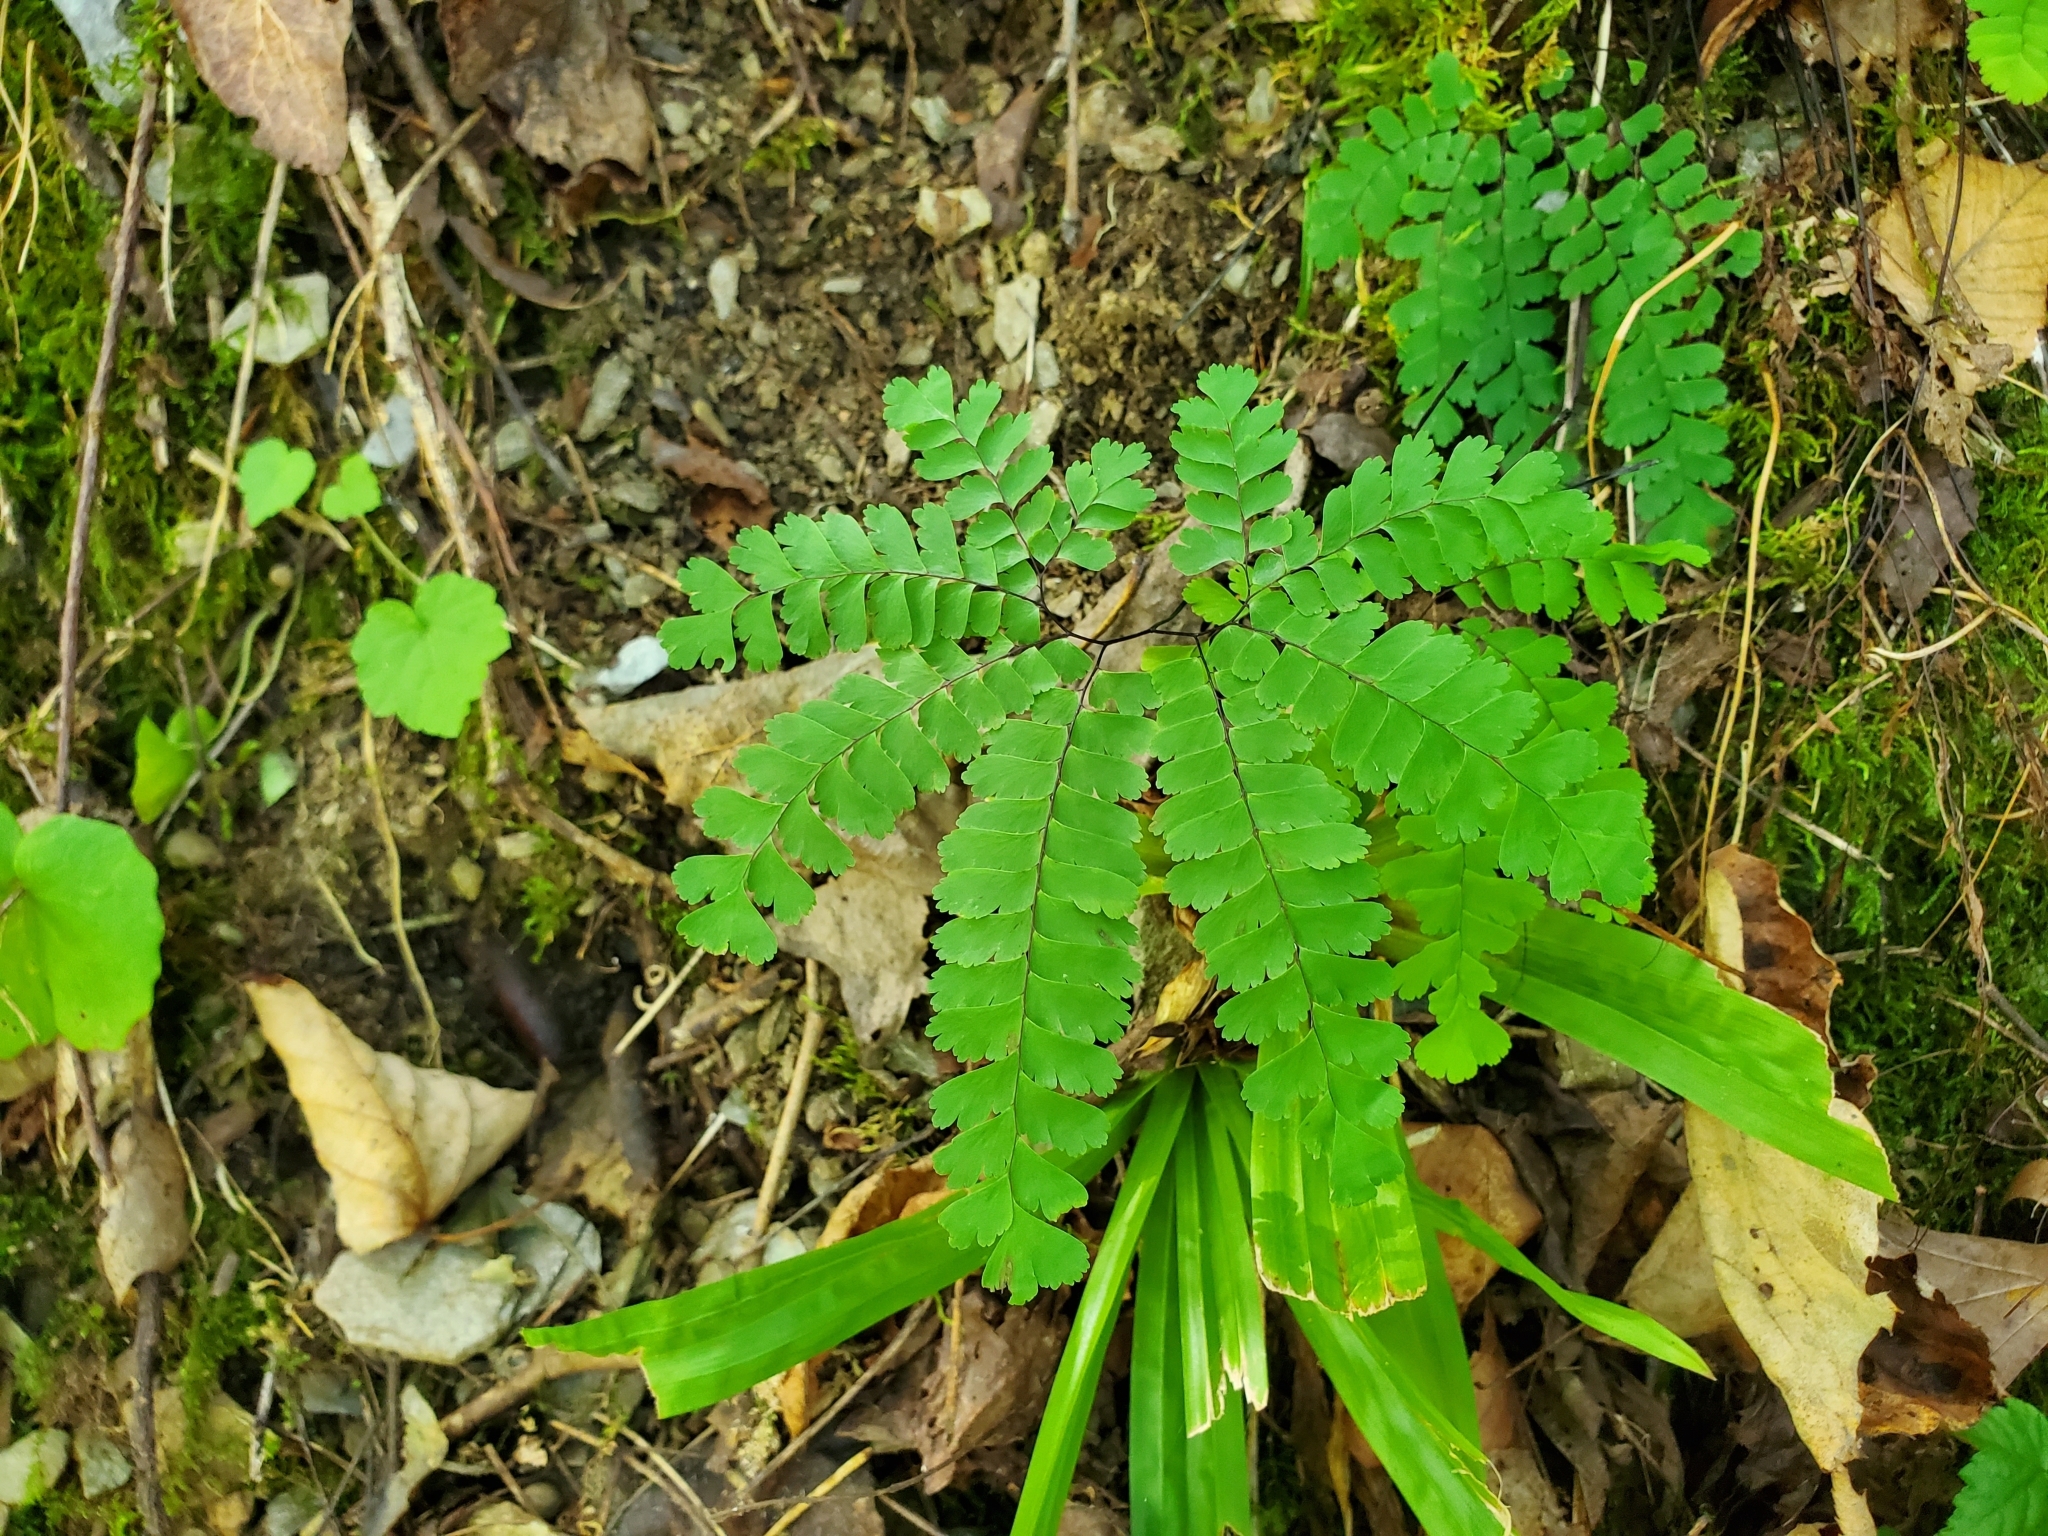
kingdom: Plantae
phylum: Tracheophyta
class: Polypodiopsida
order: Polypodiales
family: Pteridaceae
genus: Adiantum
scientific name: Adiantum pedatum
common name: Five-finger fern
